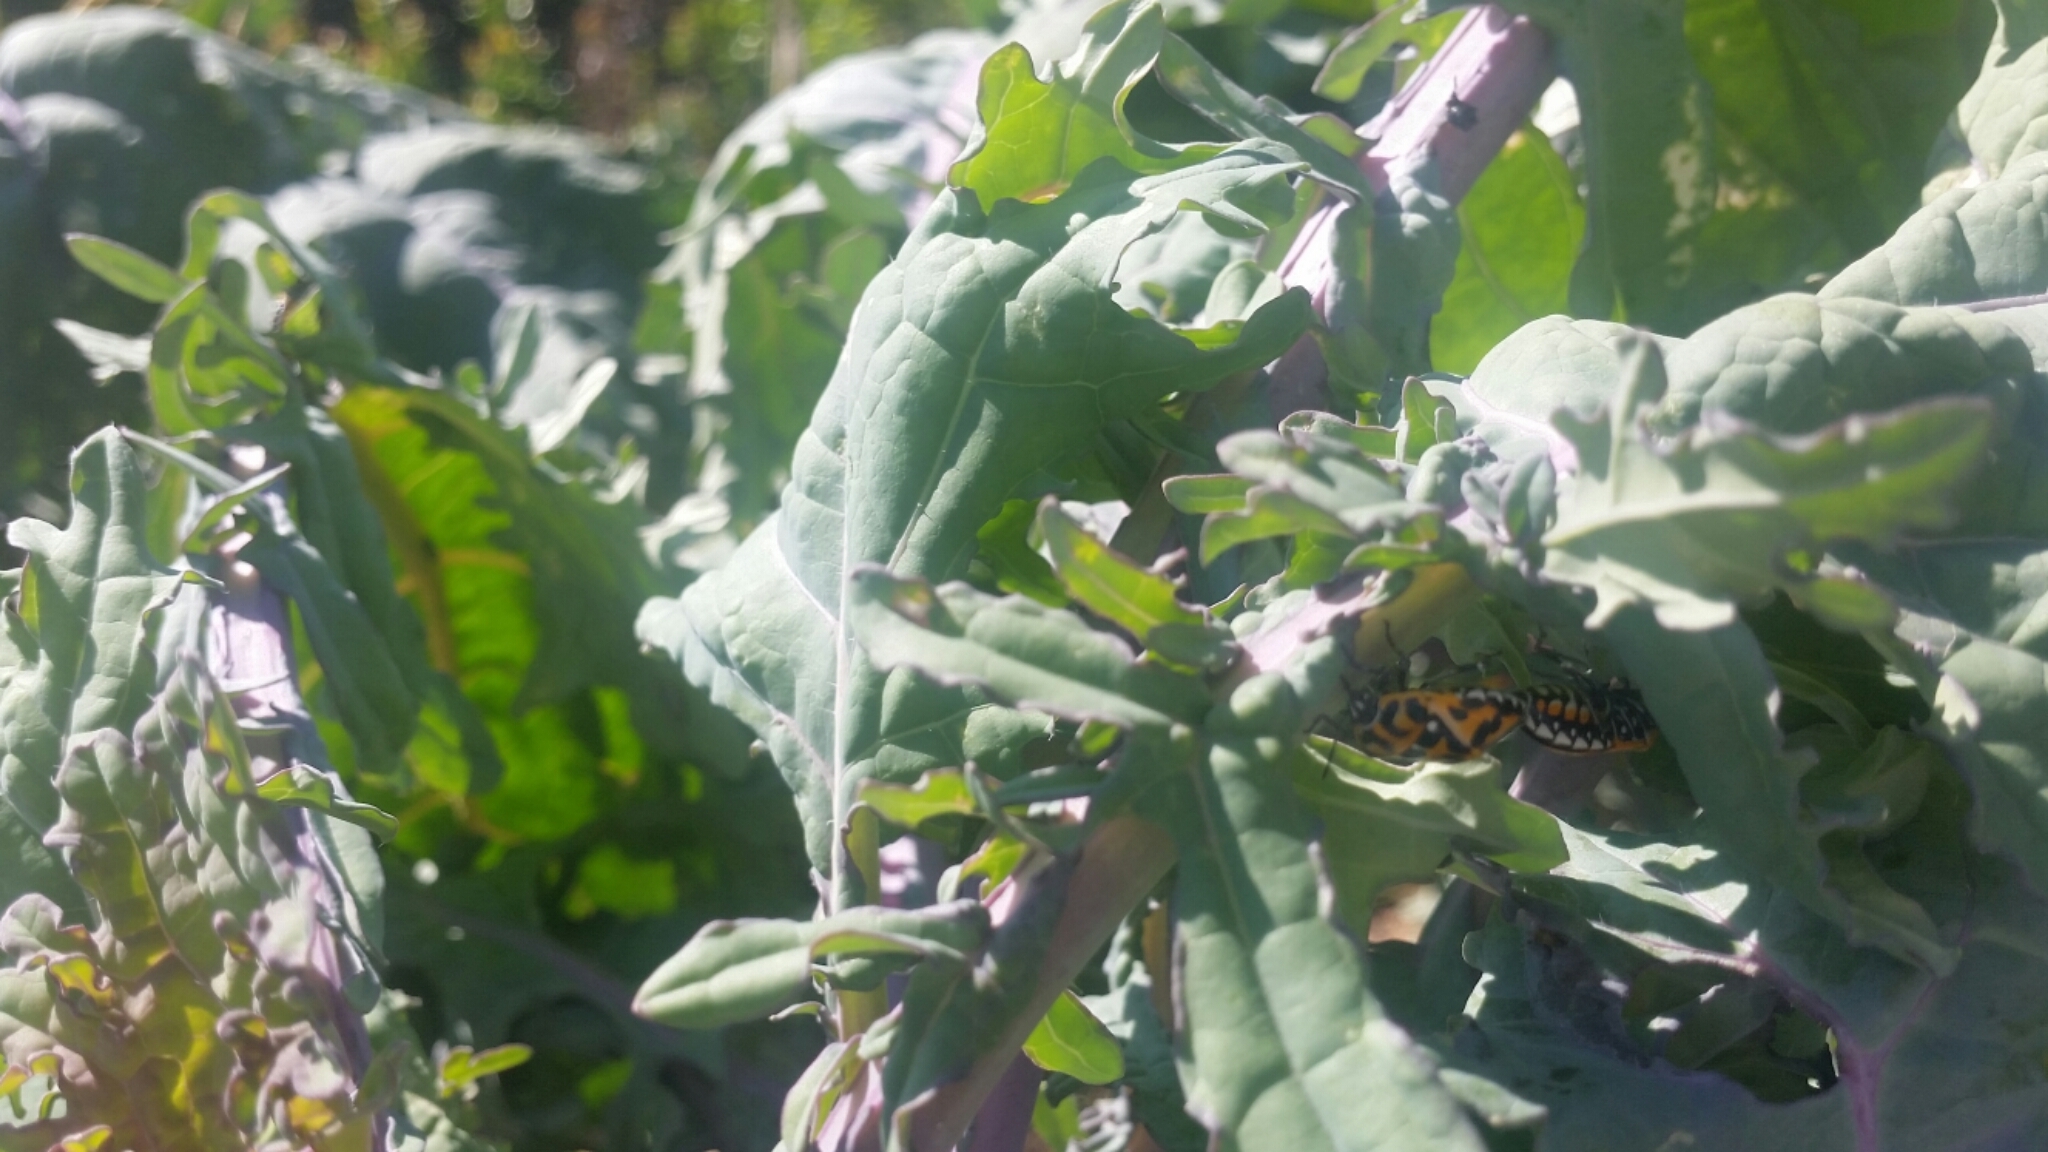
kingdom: Animalia
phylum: Arthropoda
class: Insecta
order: Hemiptera
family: Pentatomidae
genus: Murgantia
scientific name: Murgantia histrionica
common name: Harlequin bug
